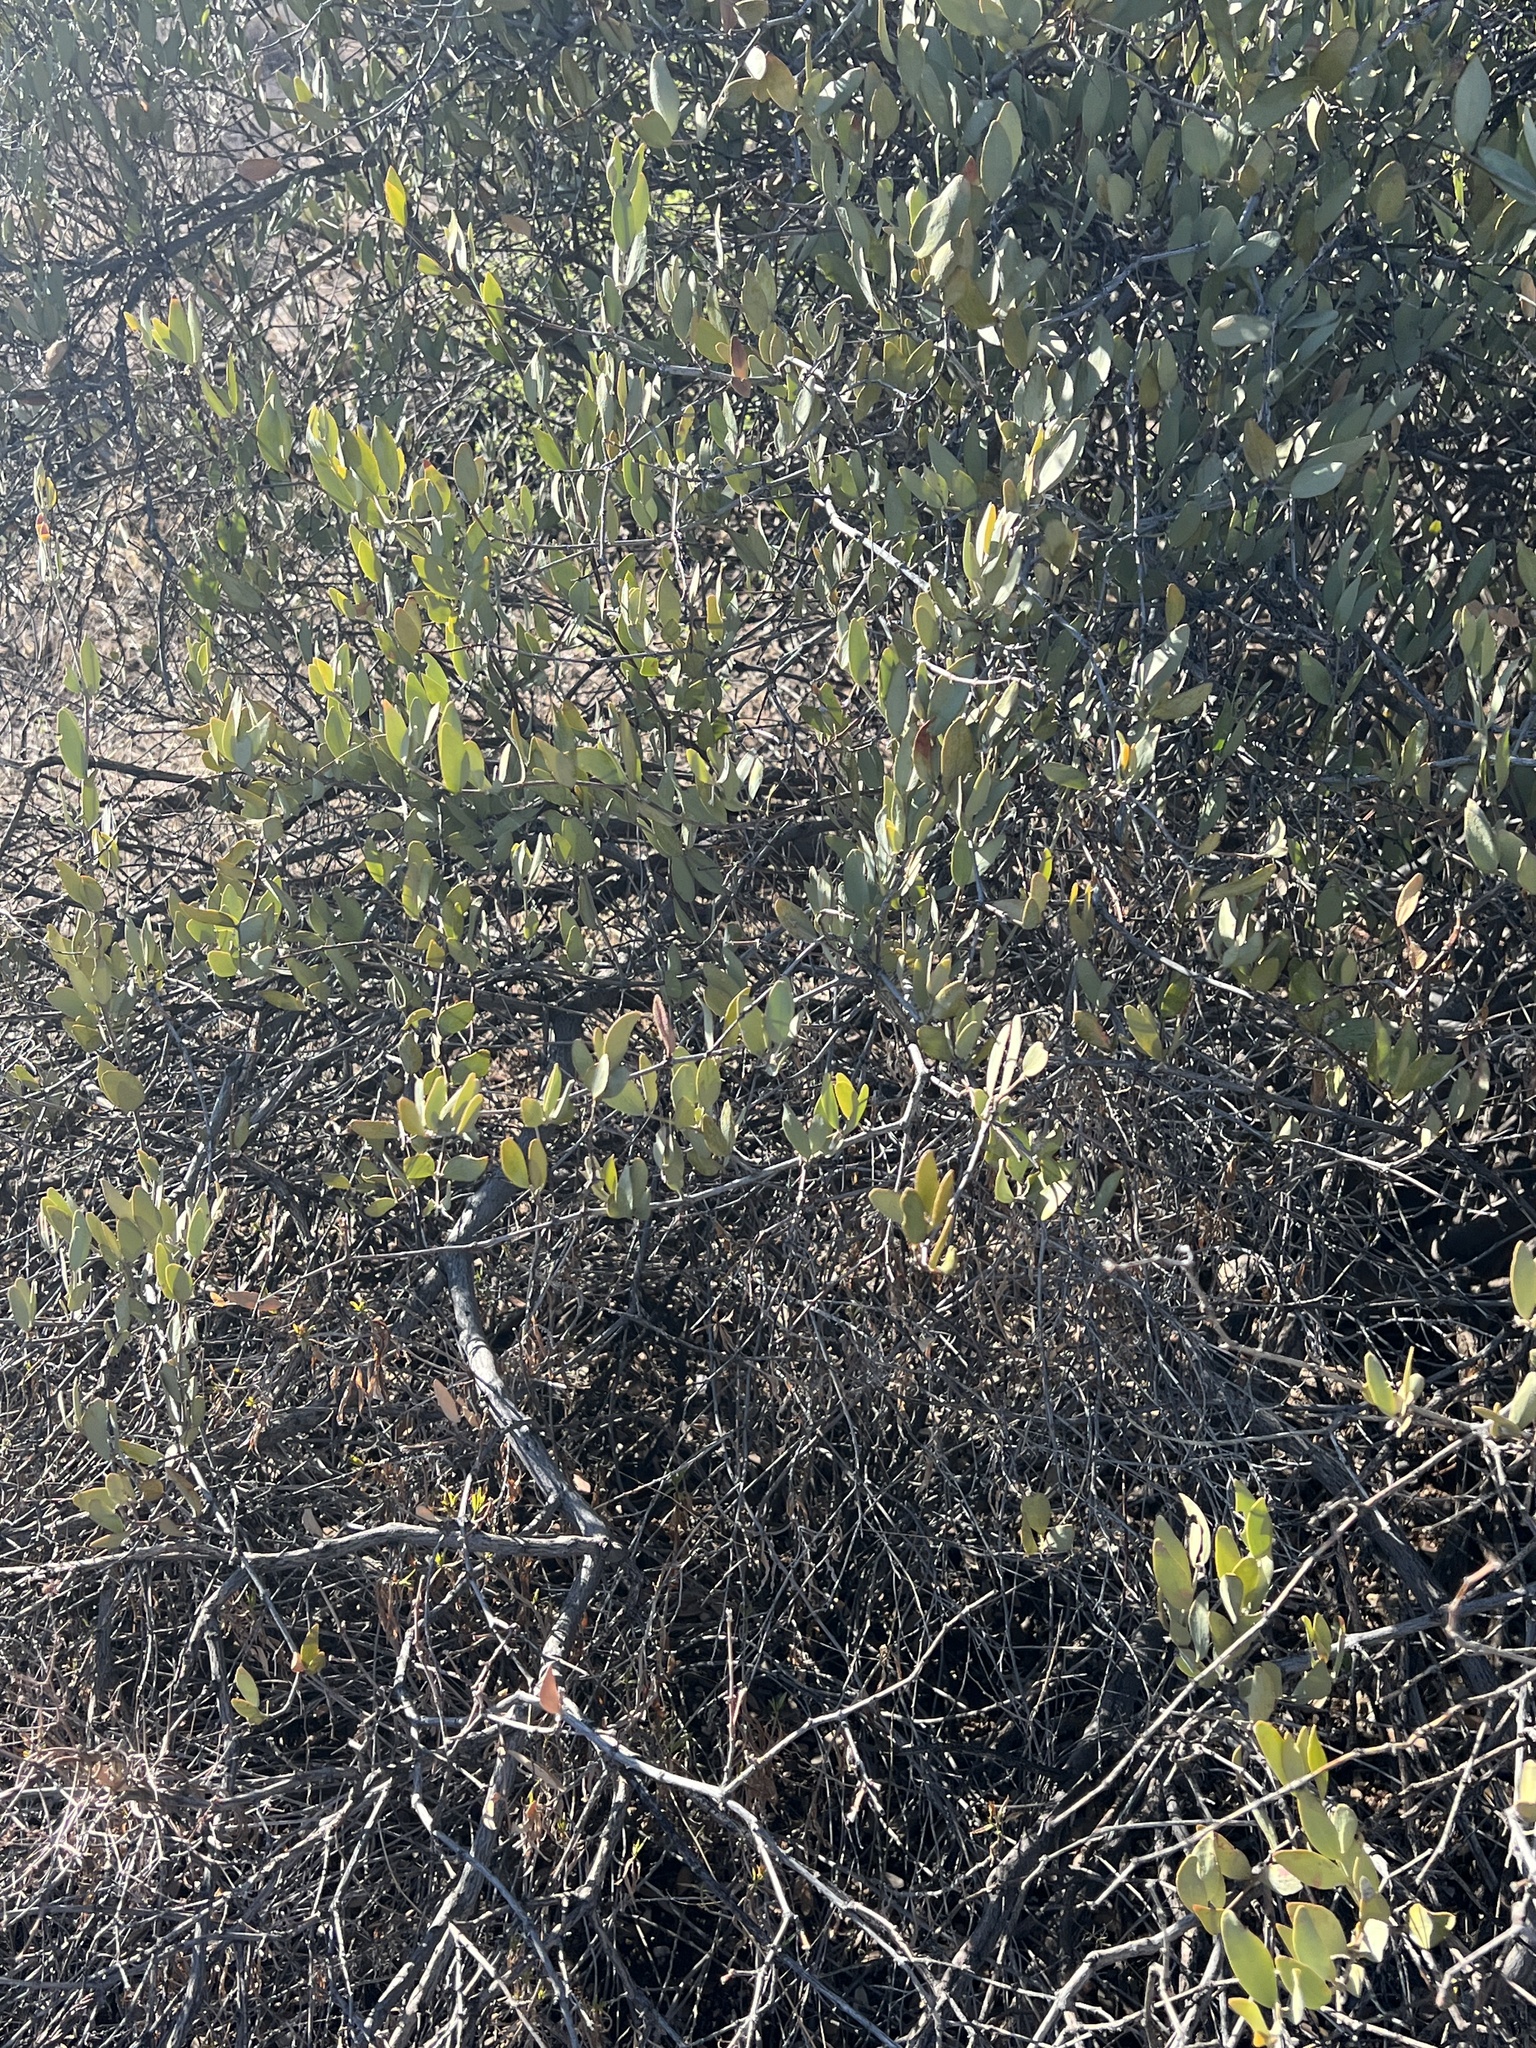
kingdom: Plantae
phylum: Tracheophyta
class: Magnoliopsida
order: Caryophyllales
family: Simmondsiaceae
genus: Simmondsia
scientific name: Simmondsia chinensis
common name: Jojoba
